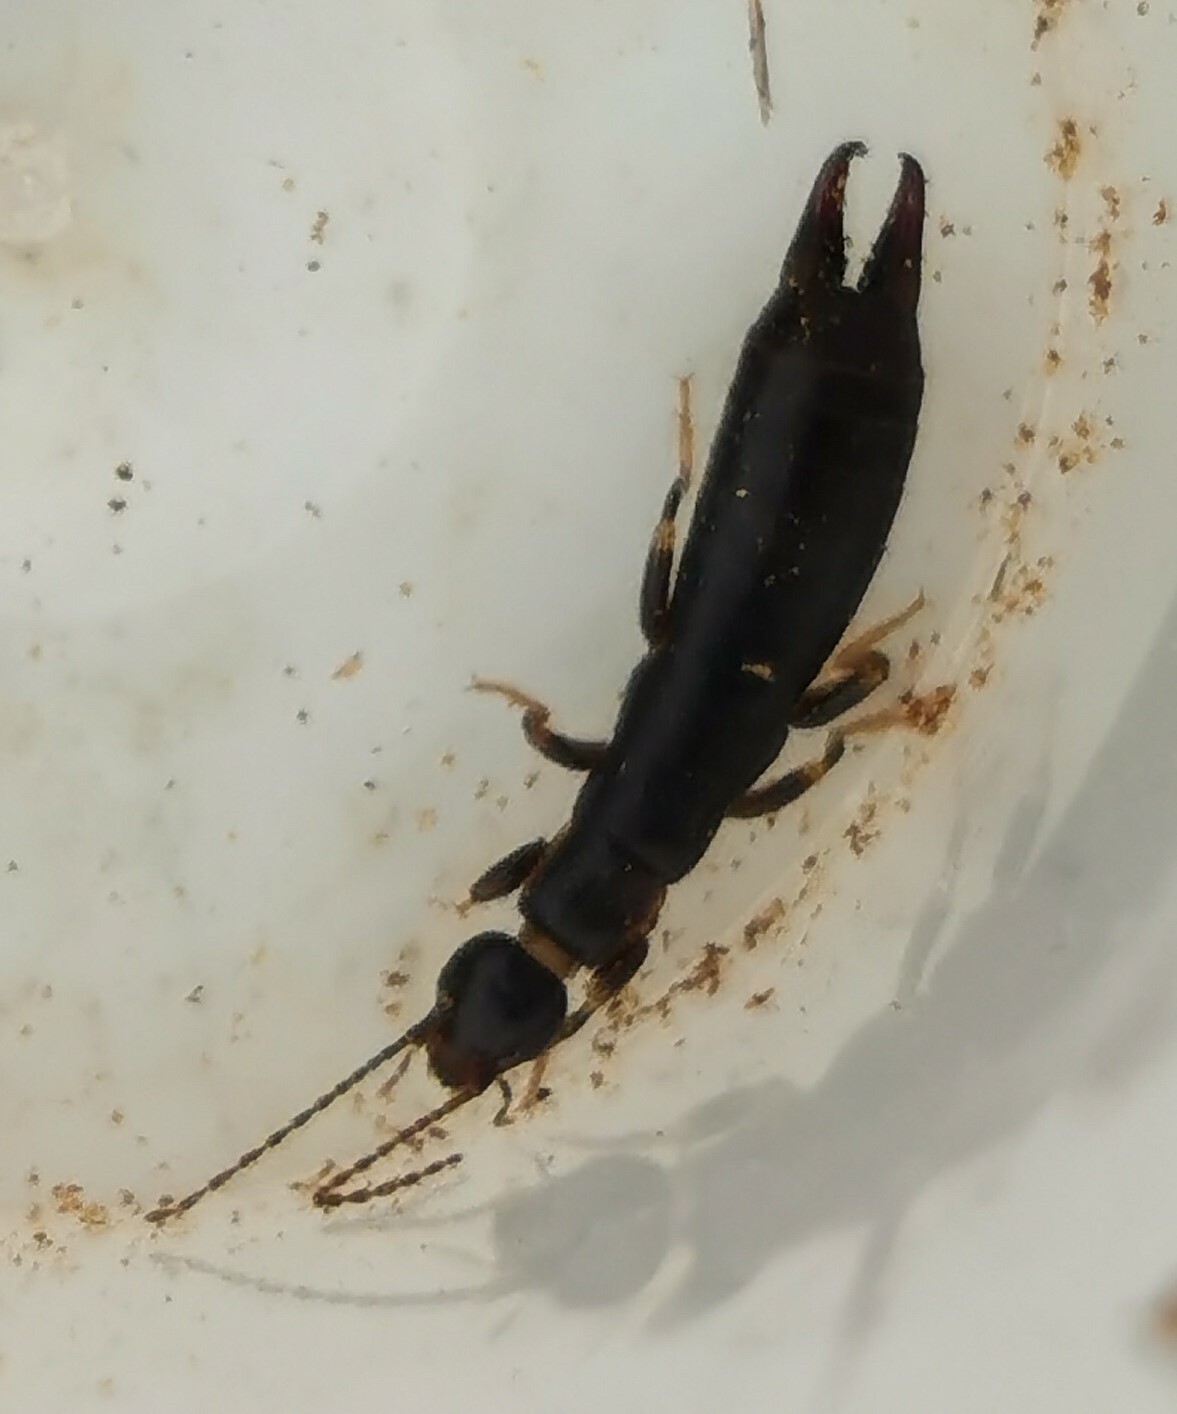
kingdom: Animalia
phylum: Arthropoda
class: Insecta
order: Dermaptera
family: Anisolabididae
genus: Euborellia
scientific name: Euborellia moesta
